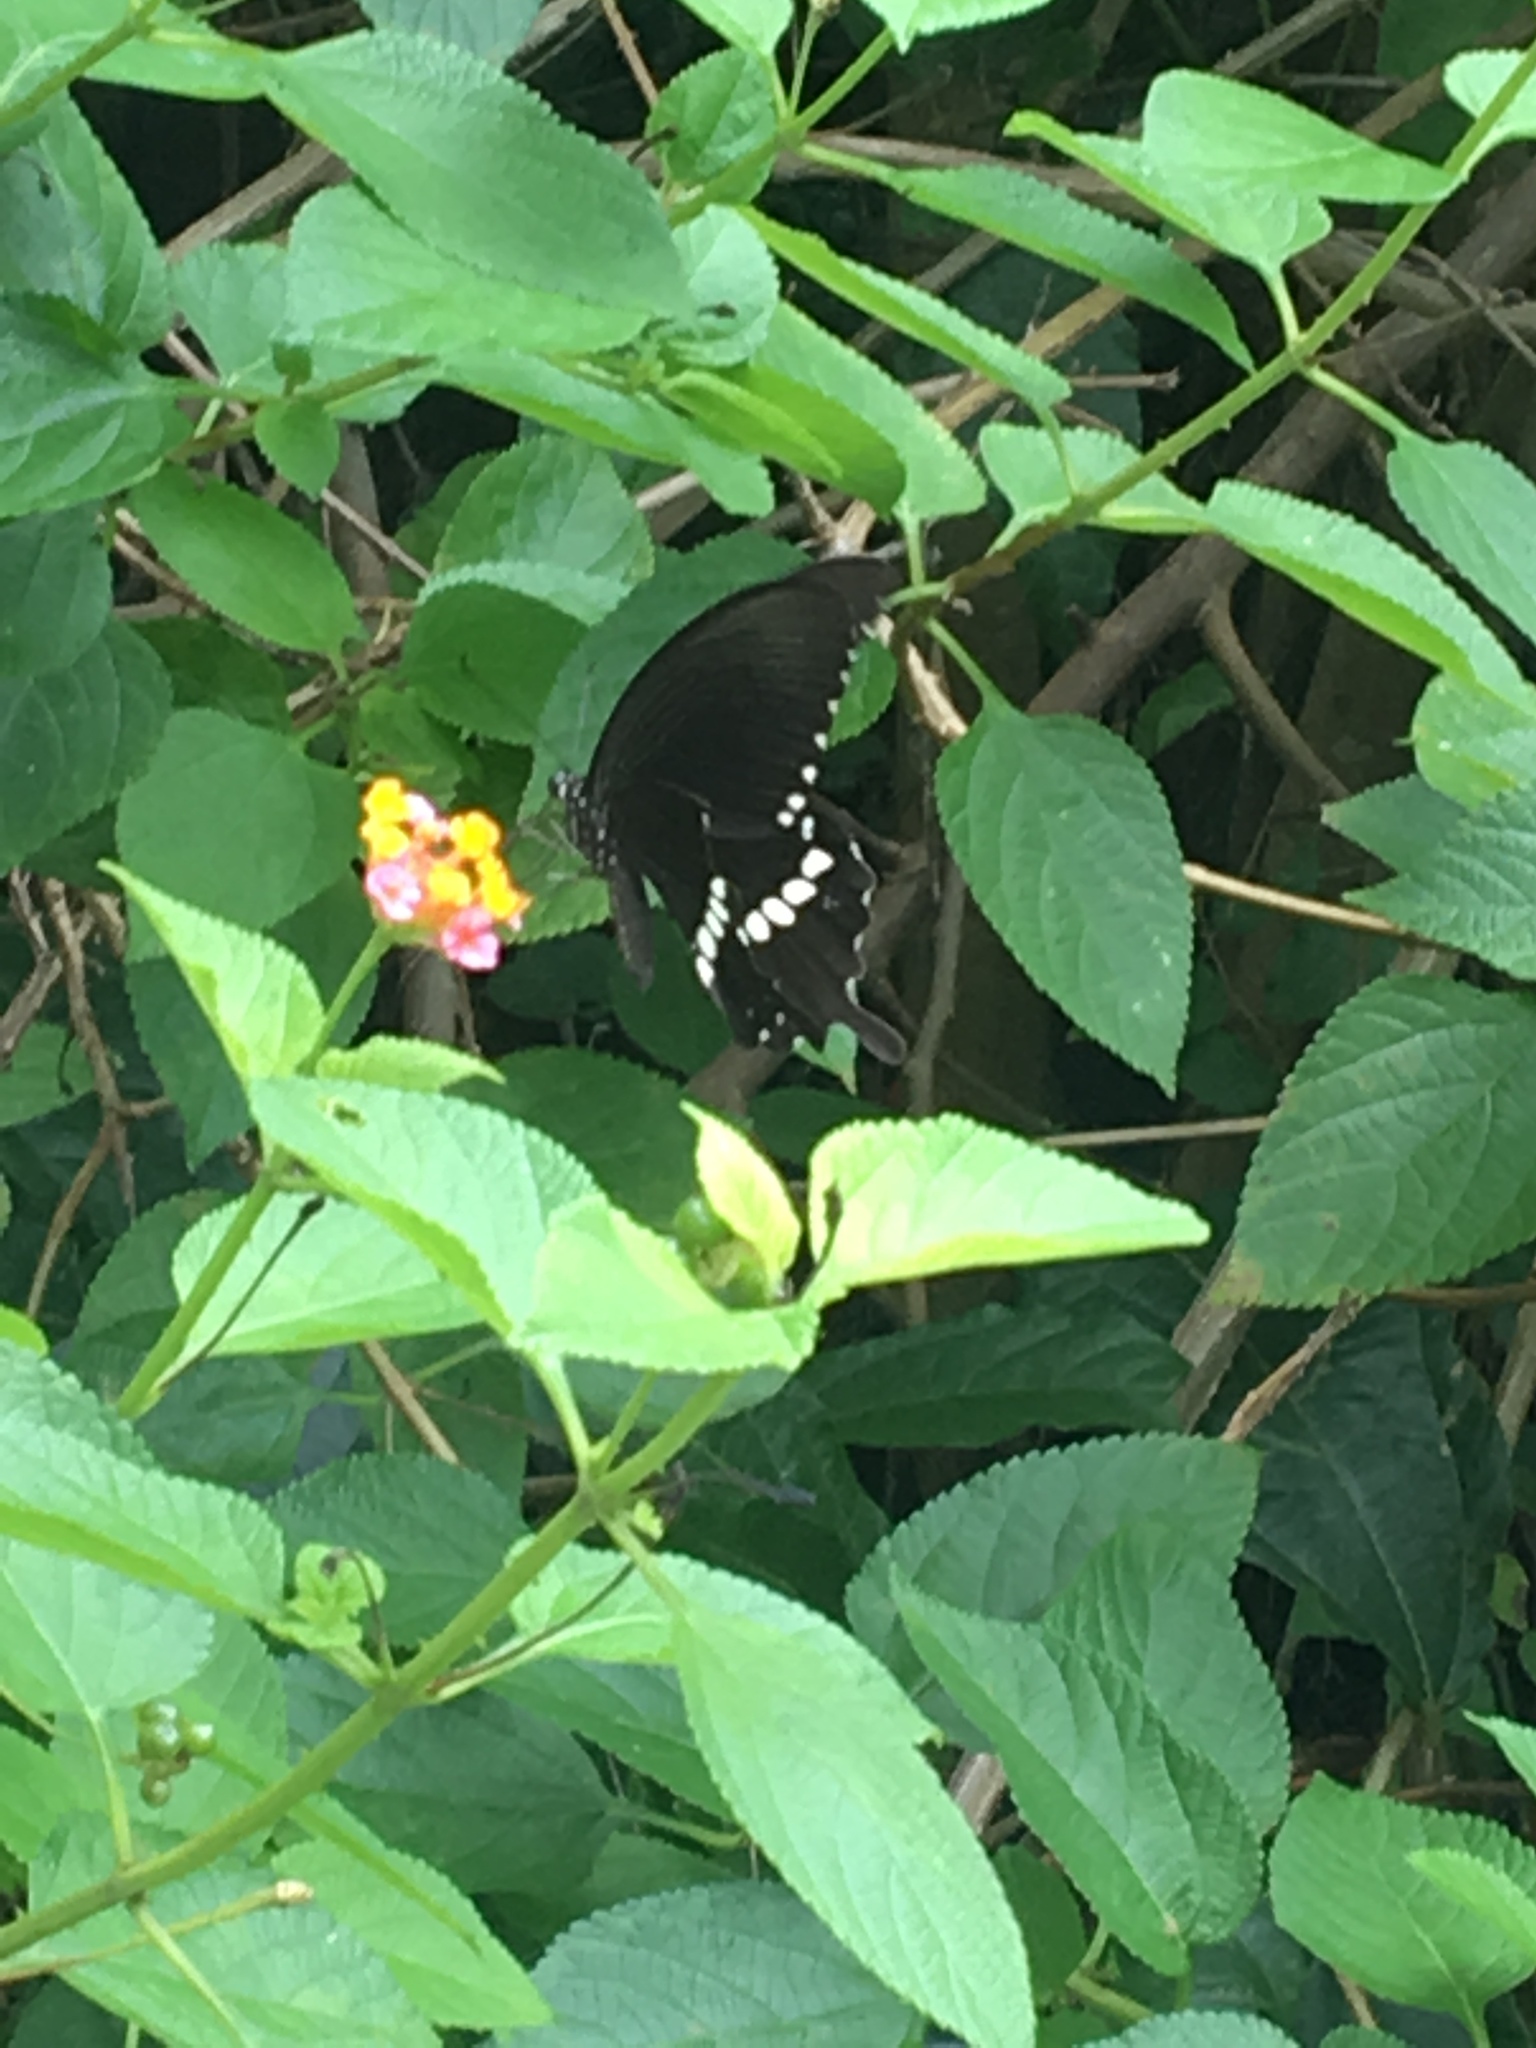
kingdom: Animalia
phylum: Arthropoda
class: Insecta
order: Lepidoptera
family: Papilionidae
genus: Papilio
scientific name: Papilio polytes
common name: Common mormon
